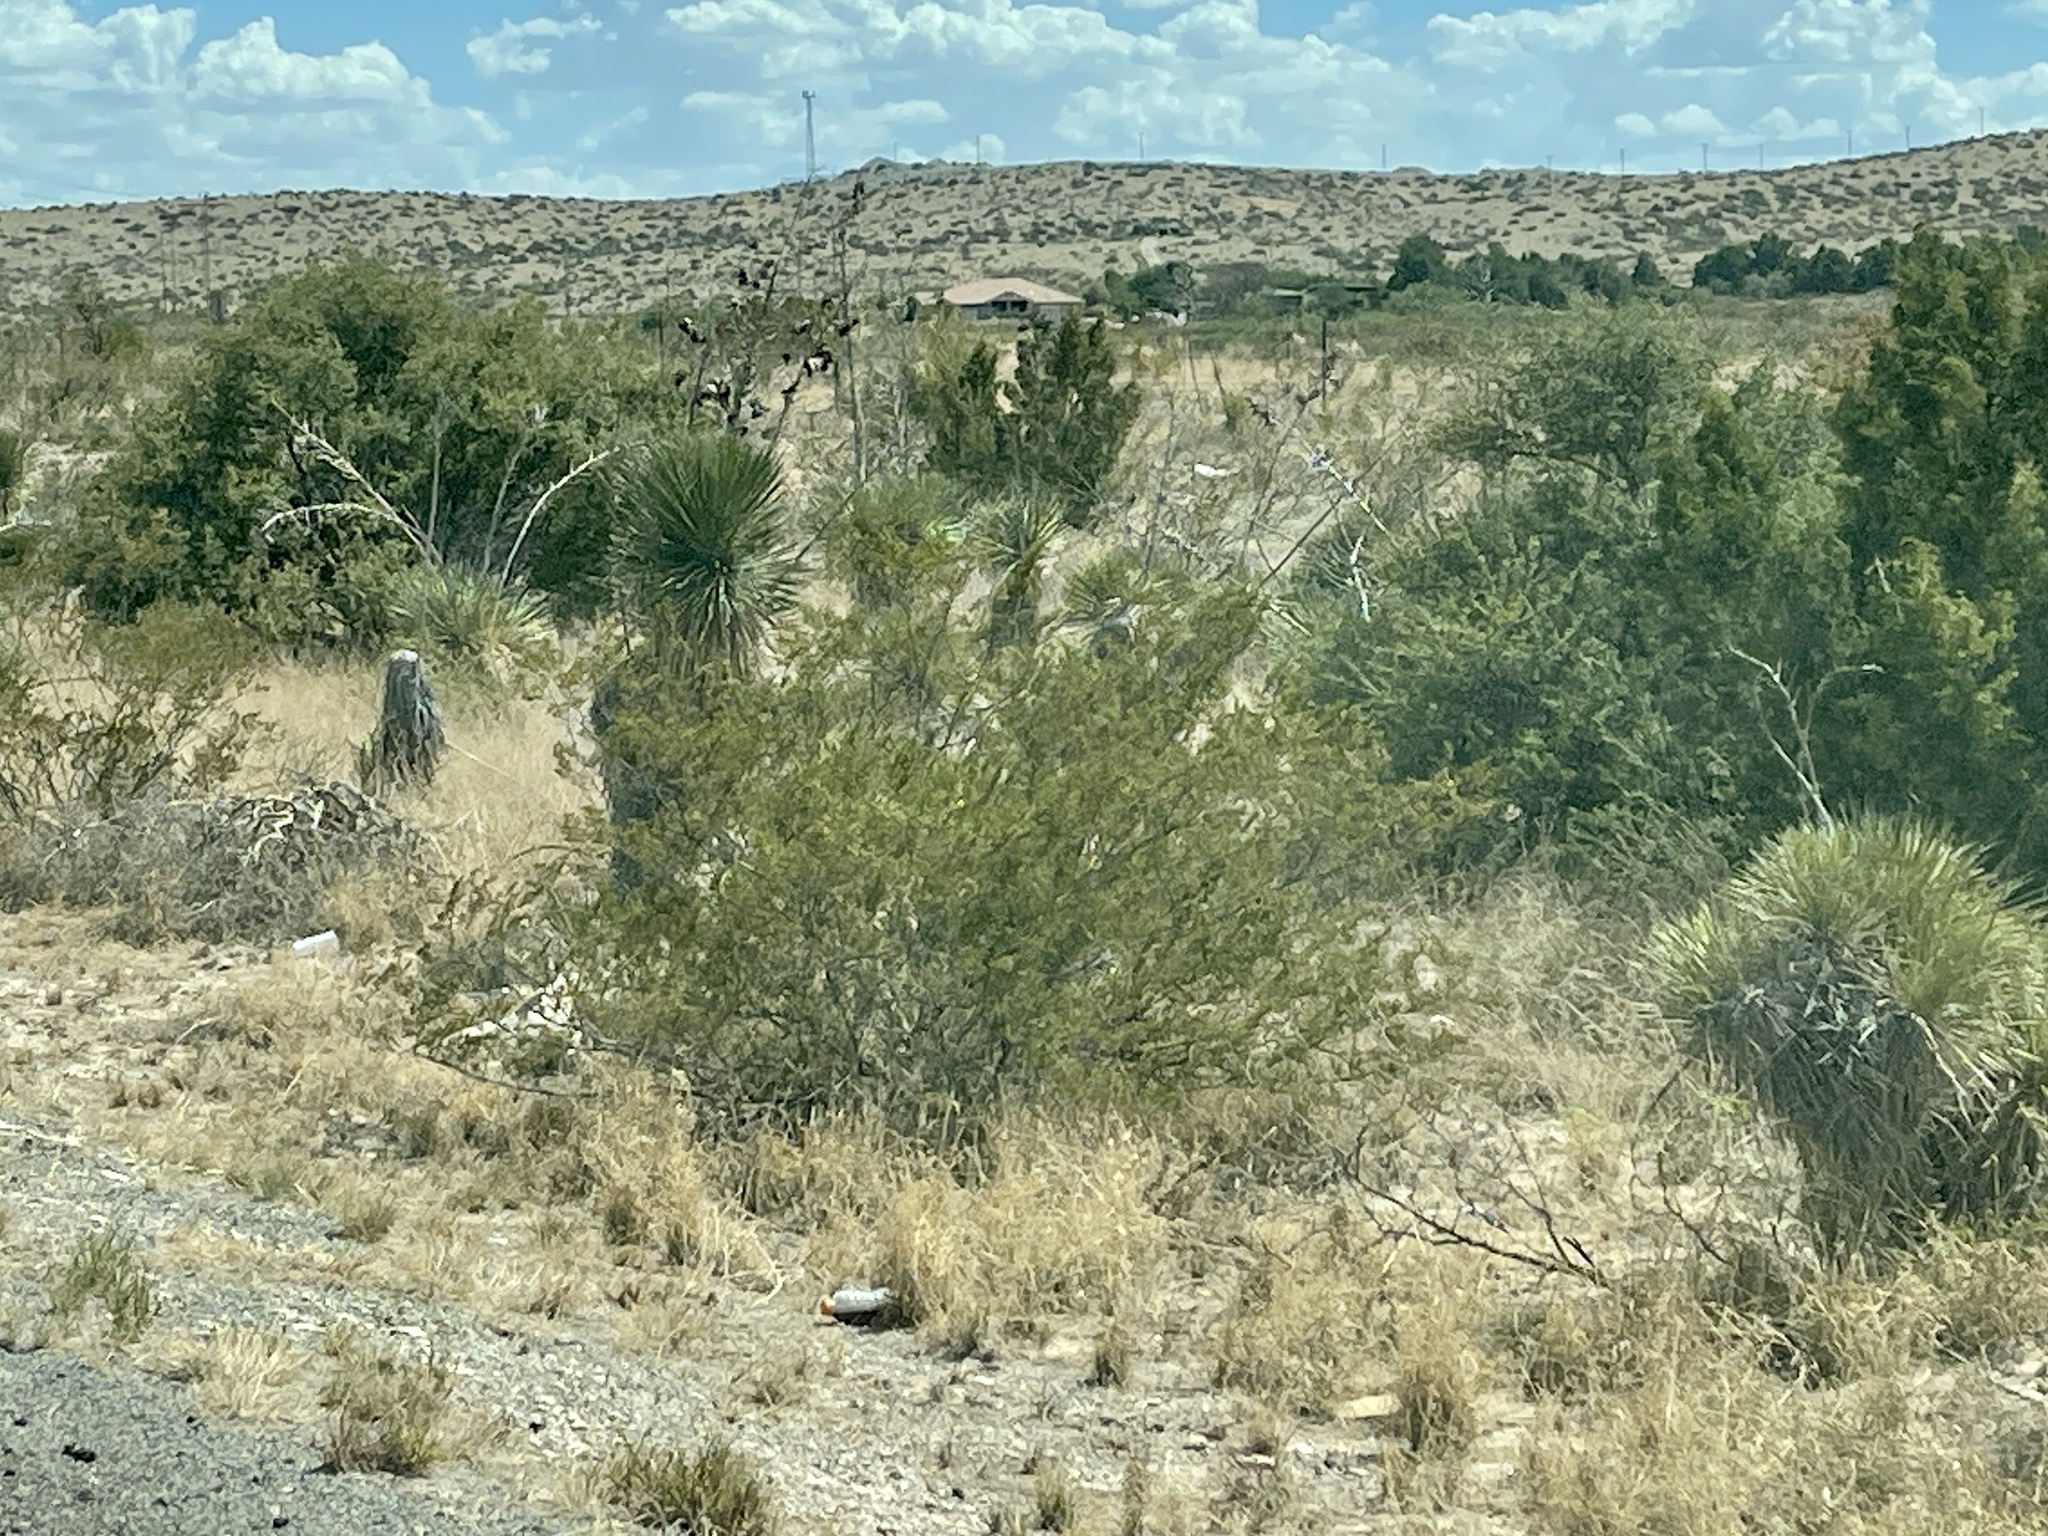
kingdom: Plantae
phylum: Tracheophyta
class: Magnoliopsida
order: Zygophyllales
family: Zygophyllaceae
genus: Larrea
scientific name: Larrea tridentata
